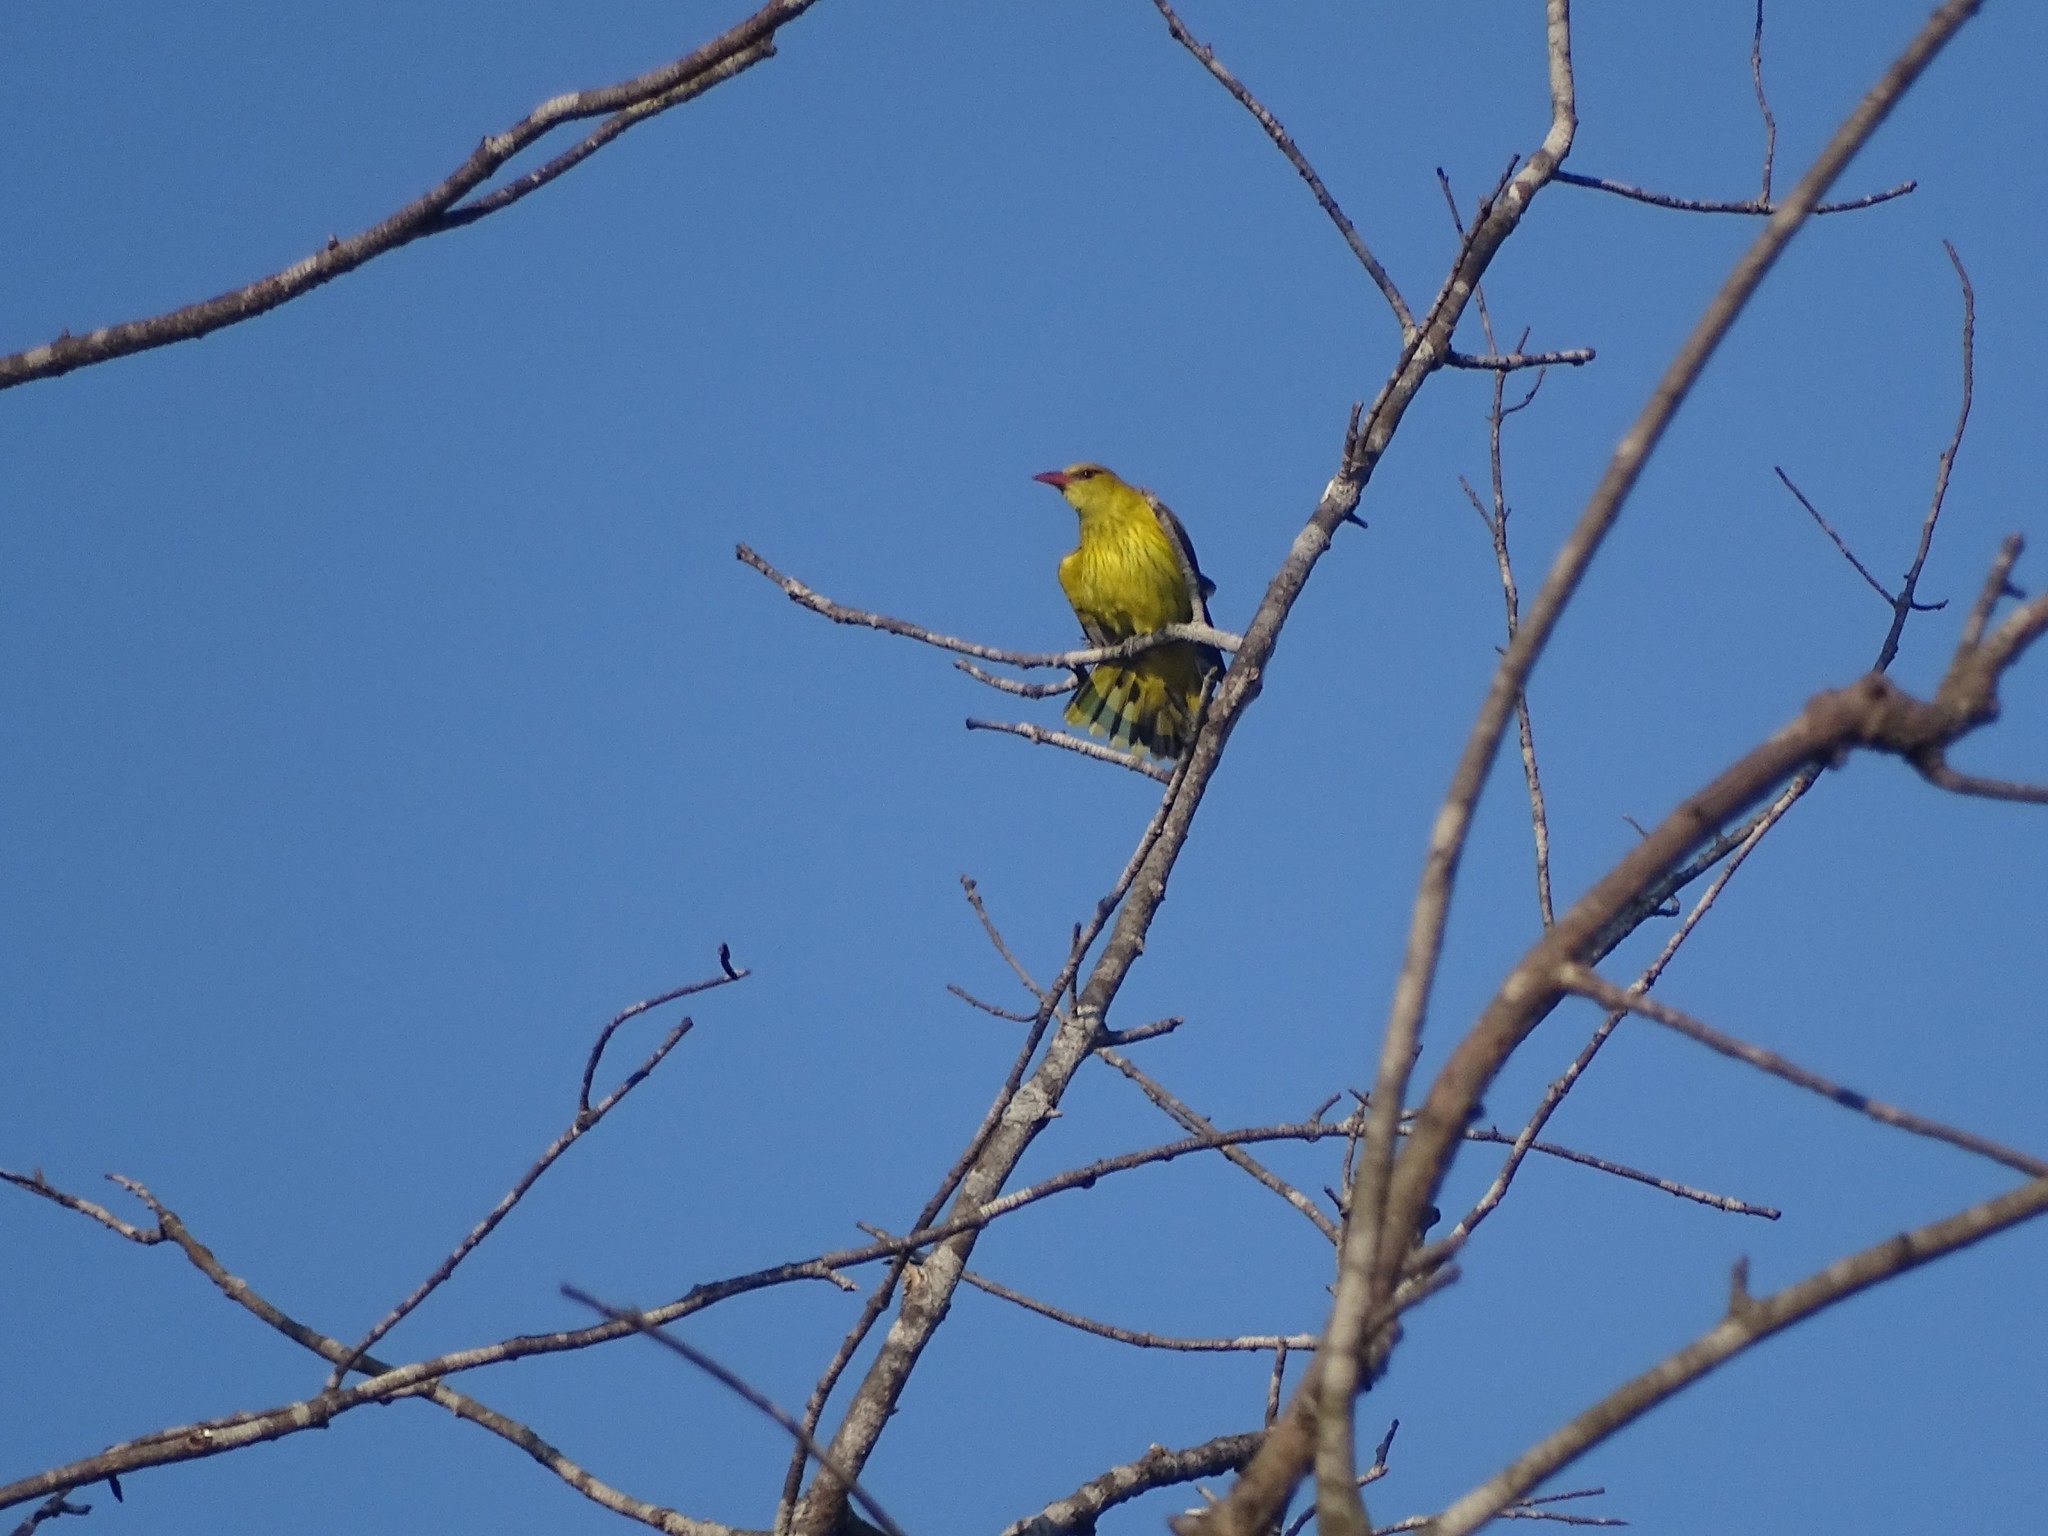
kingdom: Animalia
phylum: Chordata
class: Aves
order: Passeriformes
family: Oriolidae
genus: Oriolus
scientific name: Oriolus kundoo
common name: Indian golden oriole
